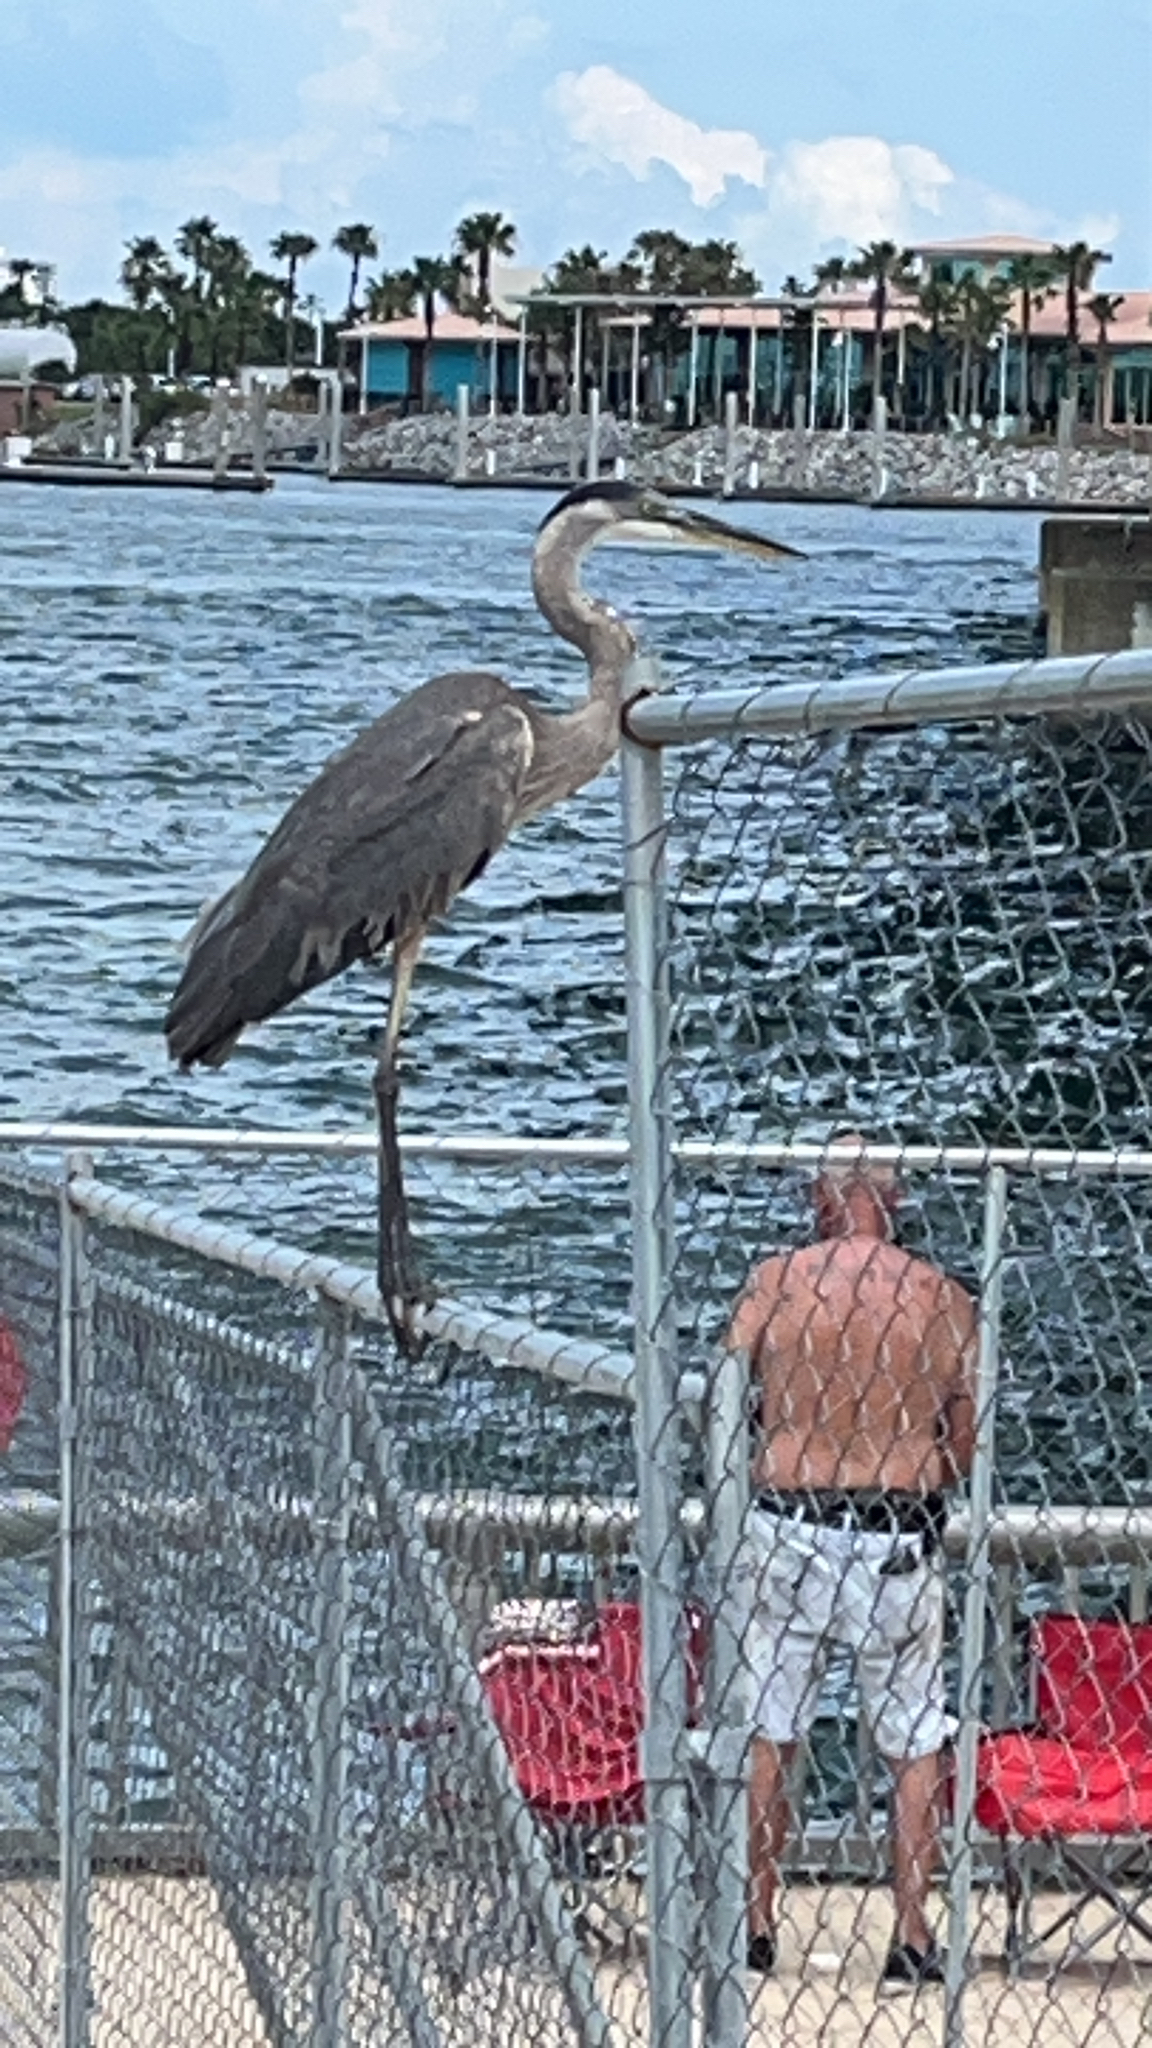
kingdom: Animalia
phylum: Chordata
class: Aves
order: Pelecaniformes
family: Ardeidae
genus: Ardea
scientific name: Ardea herodias
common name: Great blue heron
